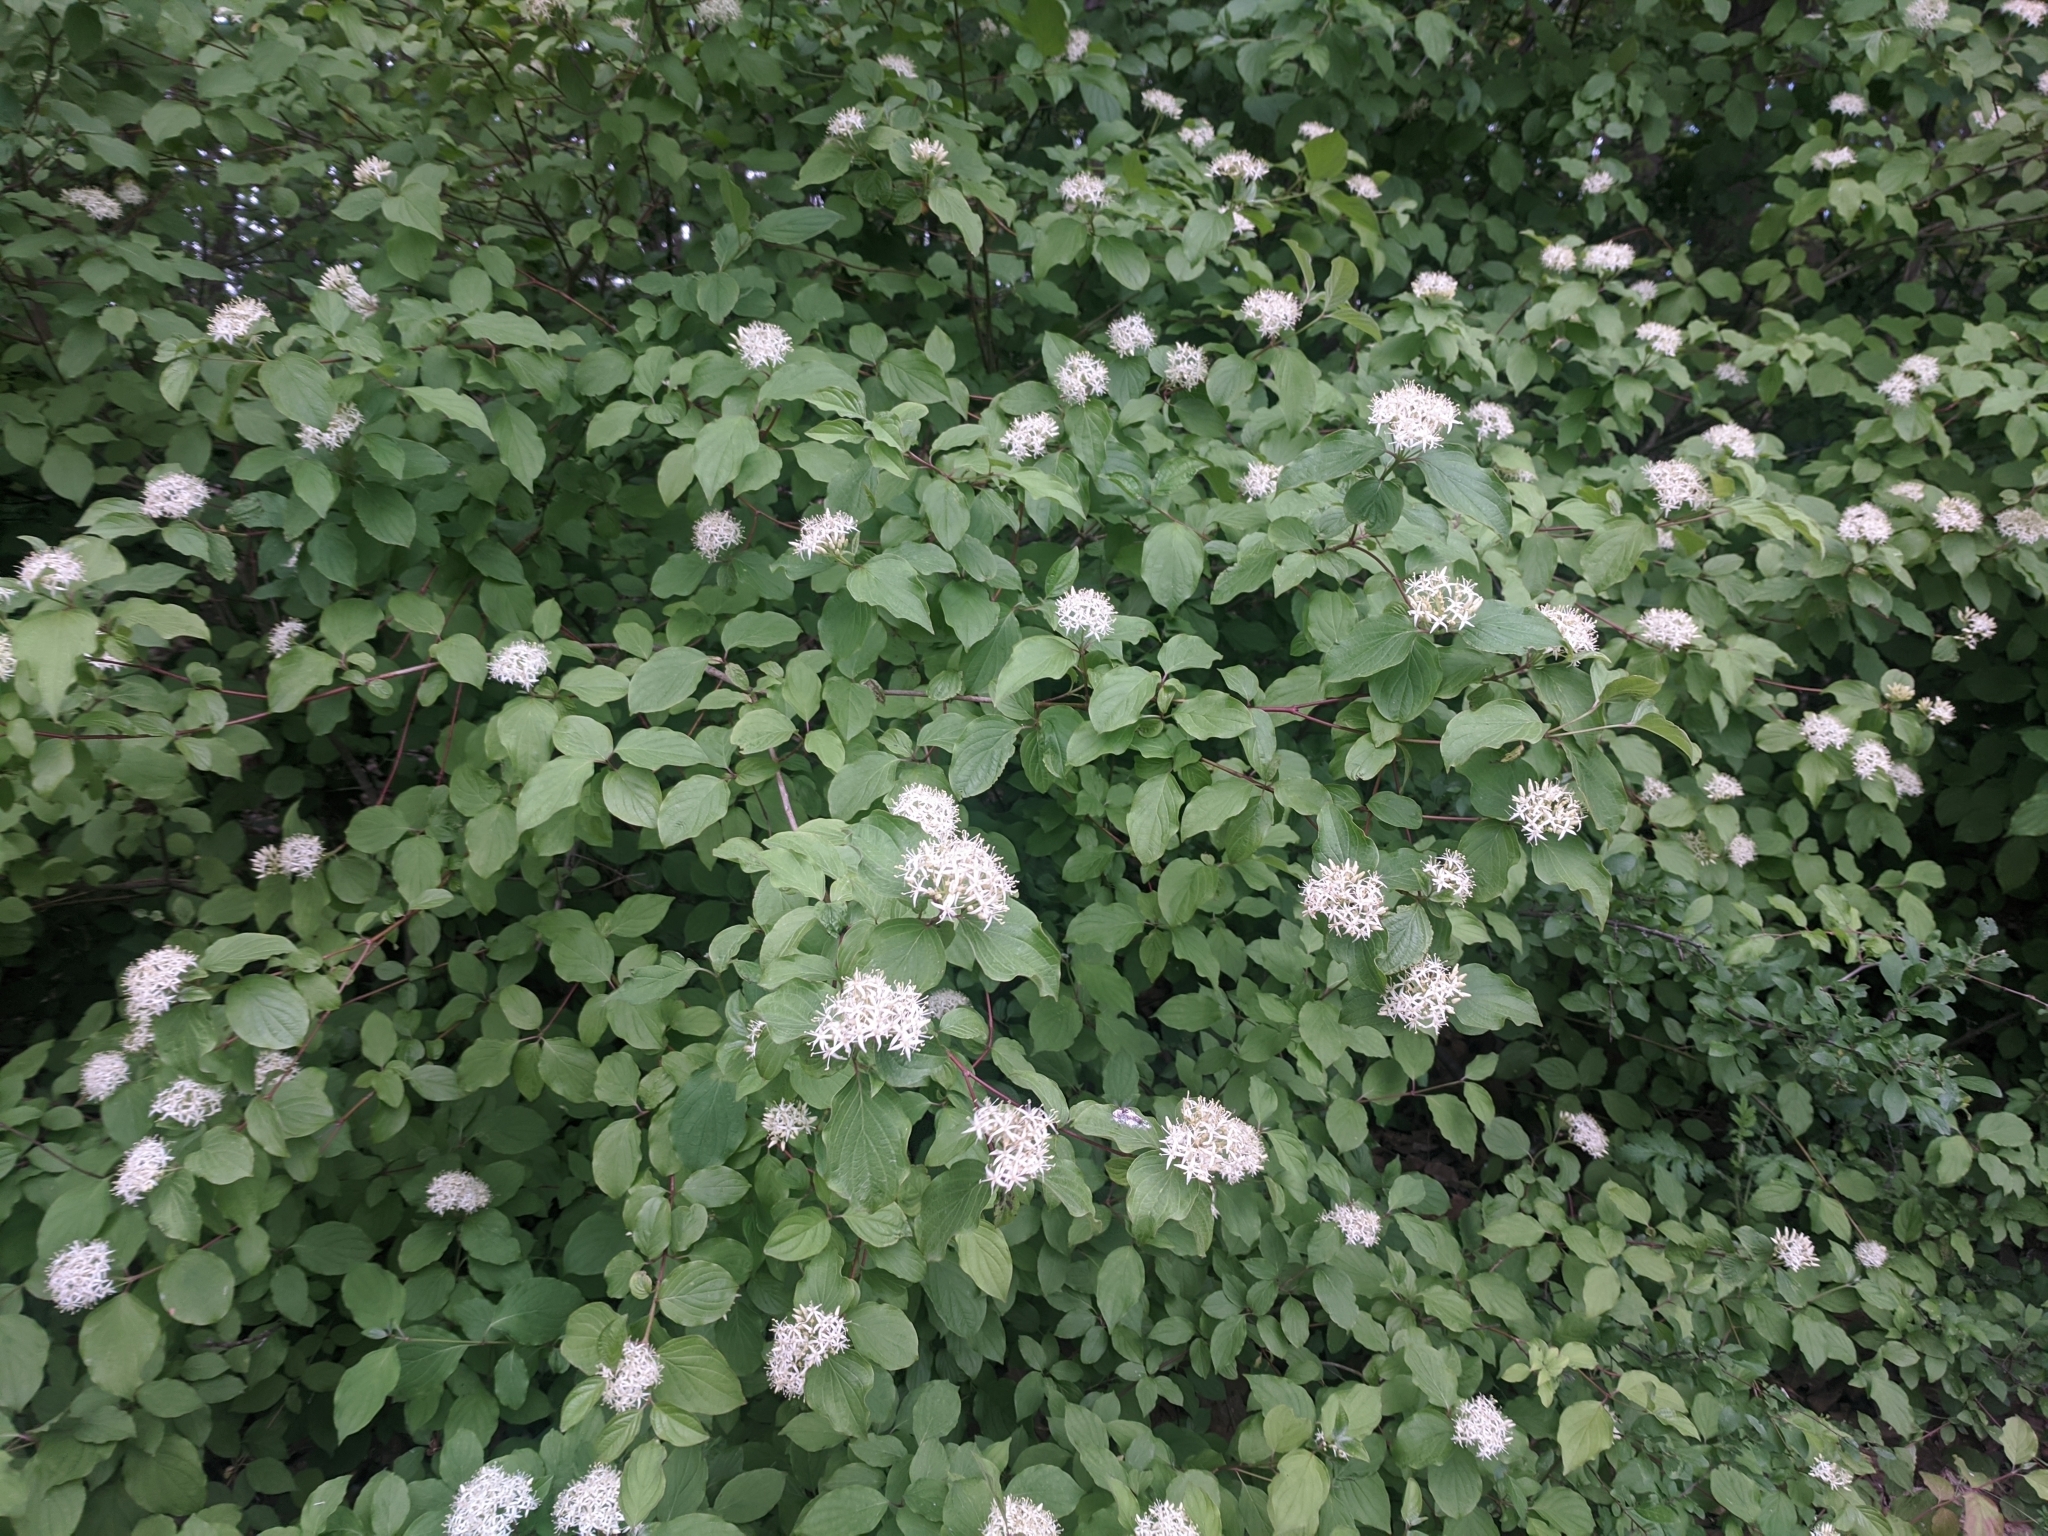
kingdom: Plantae
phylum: Tracheophyta
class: Magnoliopsida
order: Cornales
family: Cornaceae
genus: Cornus
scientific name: Cornus sanguinea
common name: Dogwood
